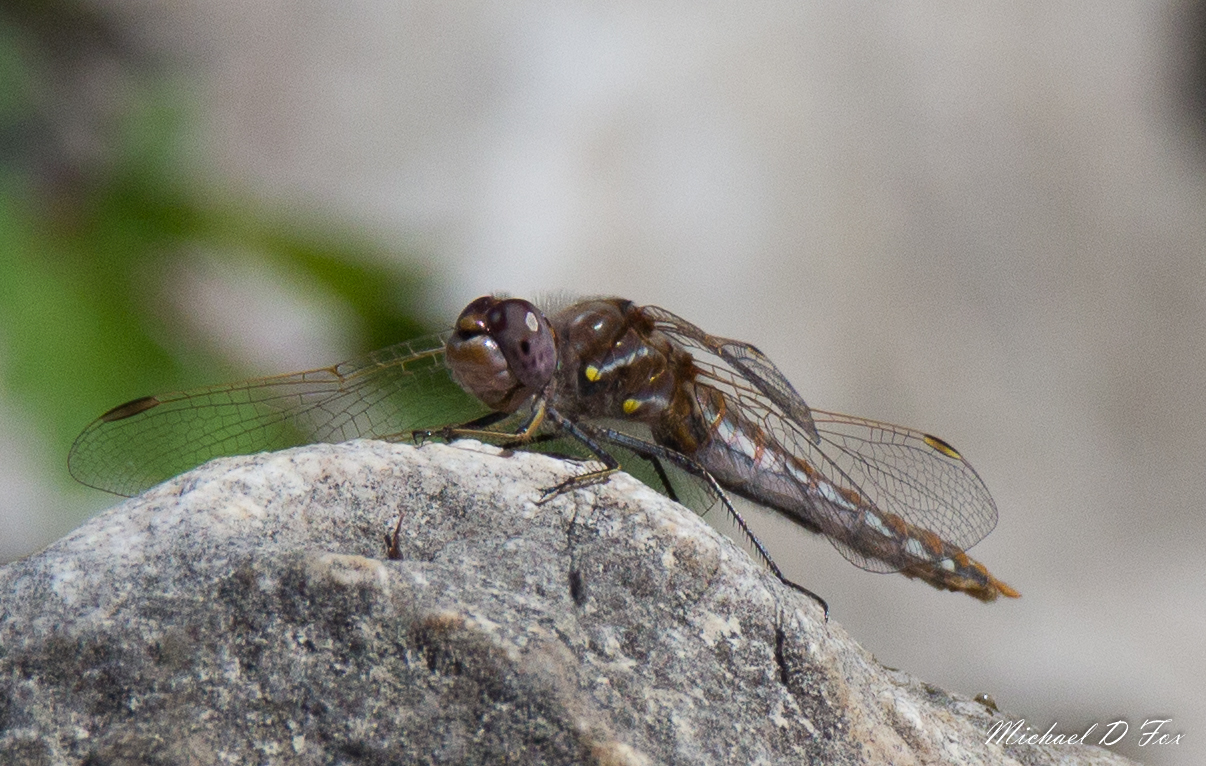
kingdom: Animalia
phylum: Arthropoda
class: Insecta
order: Odonata
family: Libellulidae
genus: Sympetrum
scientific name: Sympetrum corruptum
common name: Variegated meadowhawk
